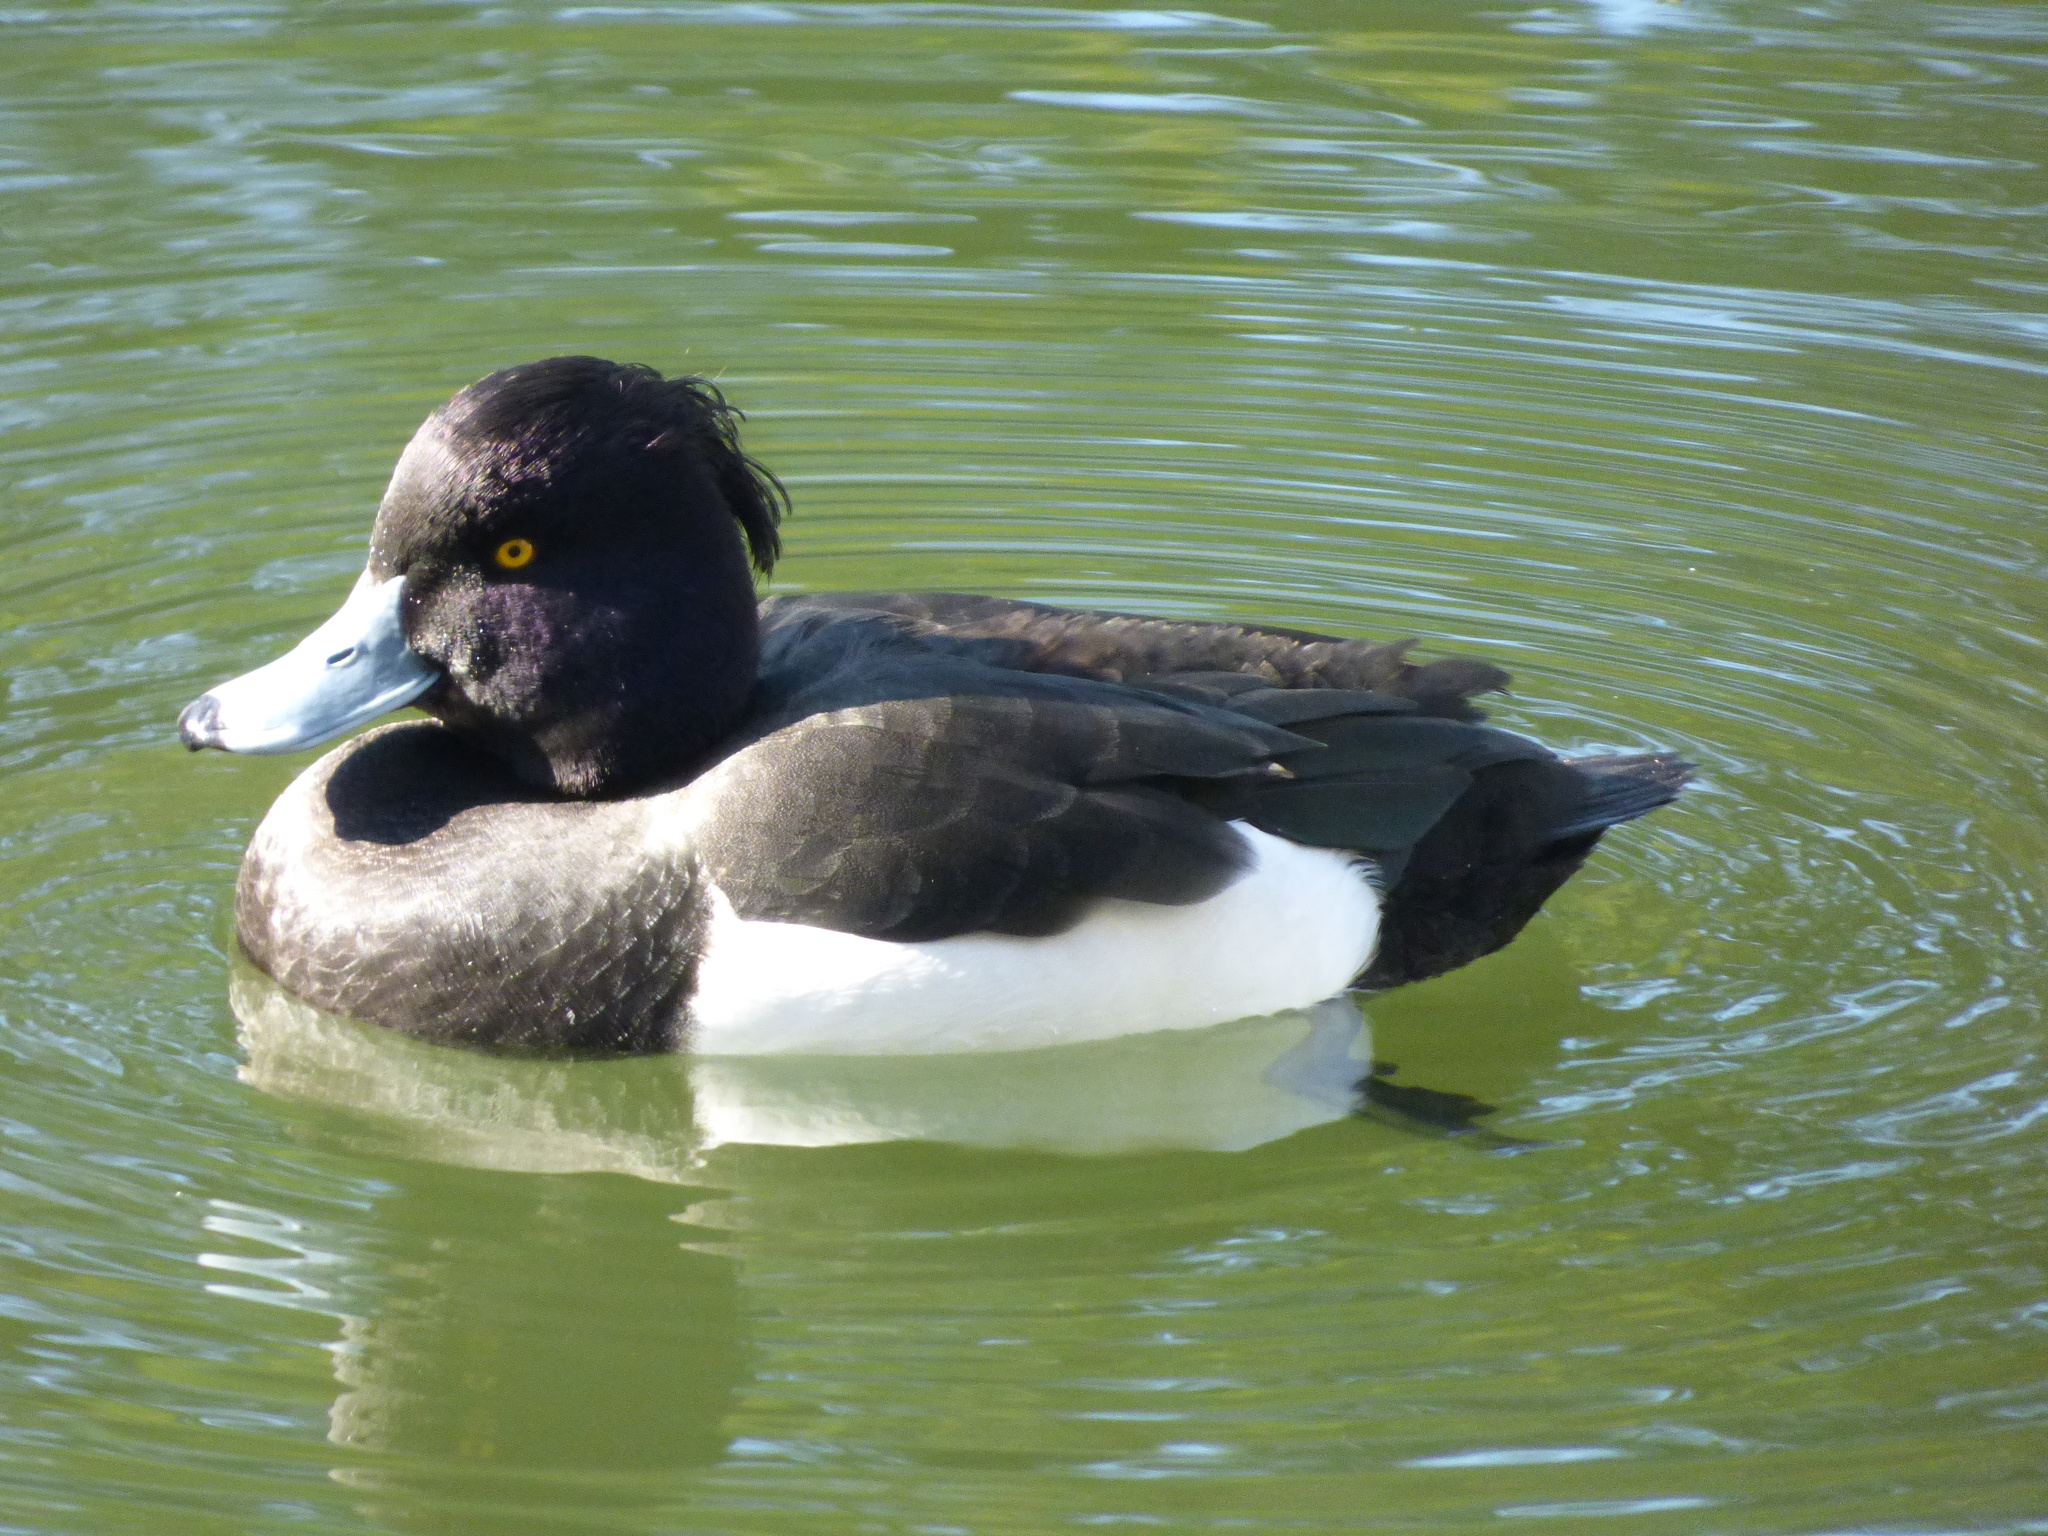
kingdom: Animalia
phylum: Chordata
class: Aves
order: Anseriformes
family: Anatidae
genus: Aythya
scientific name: Aythya fuligula
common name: Tufted duck
